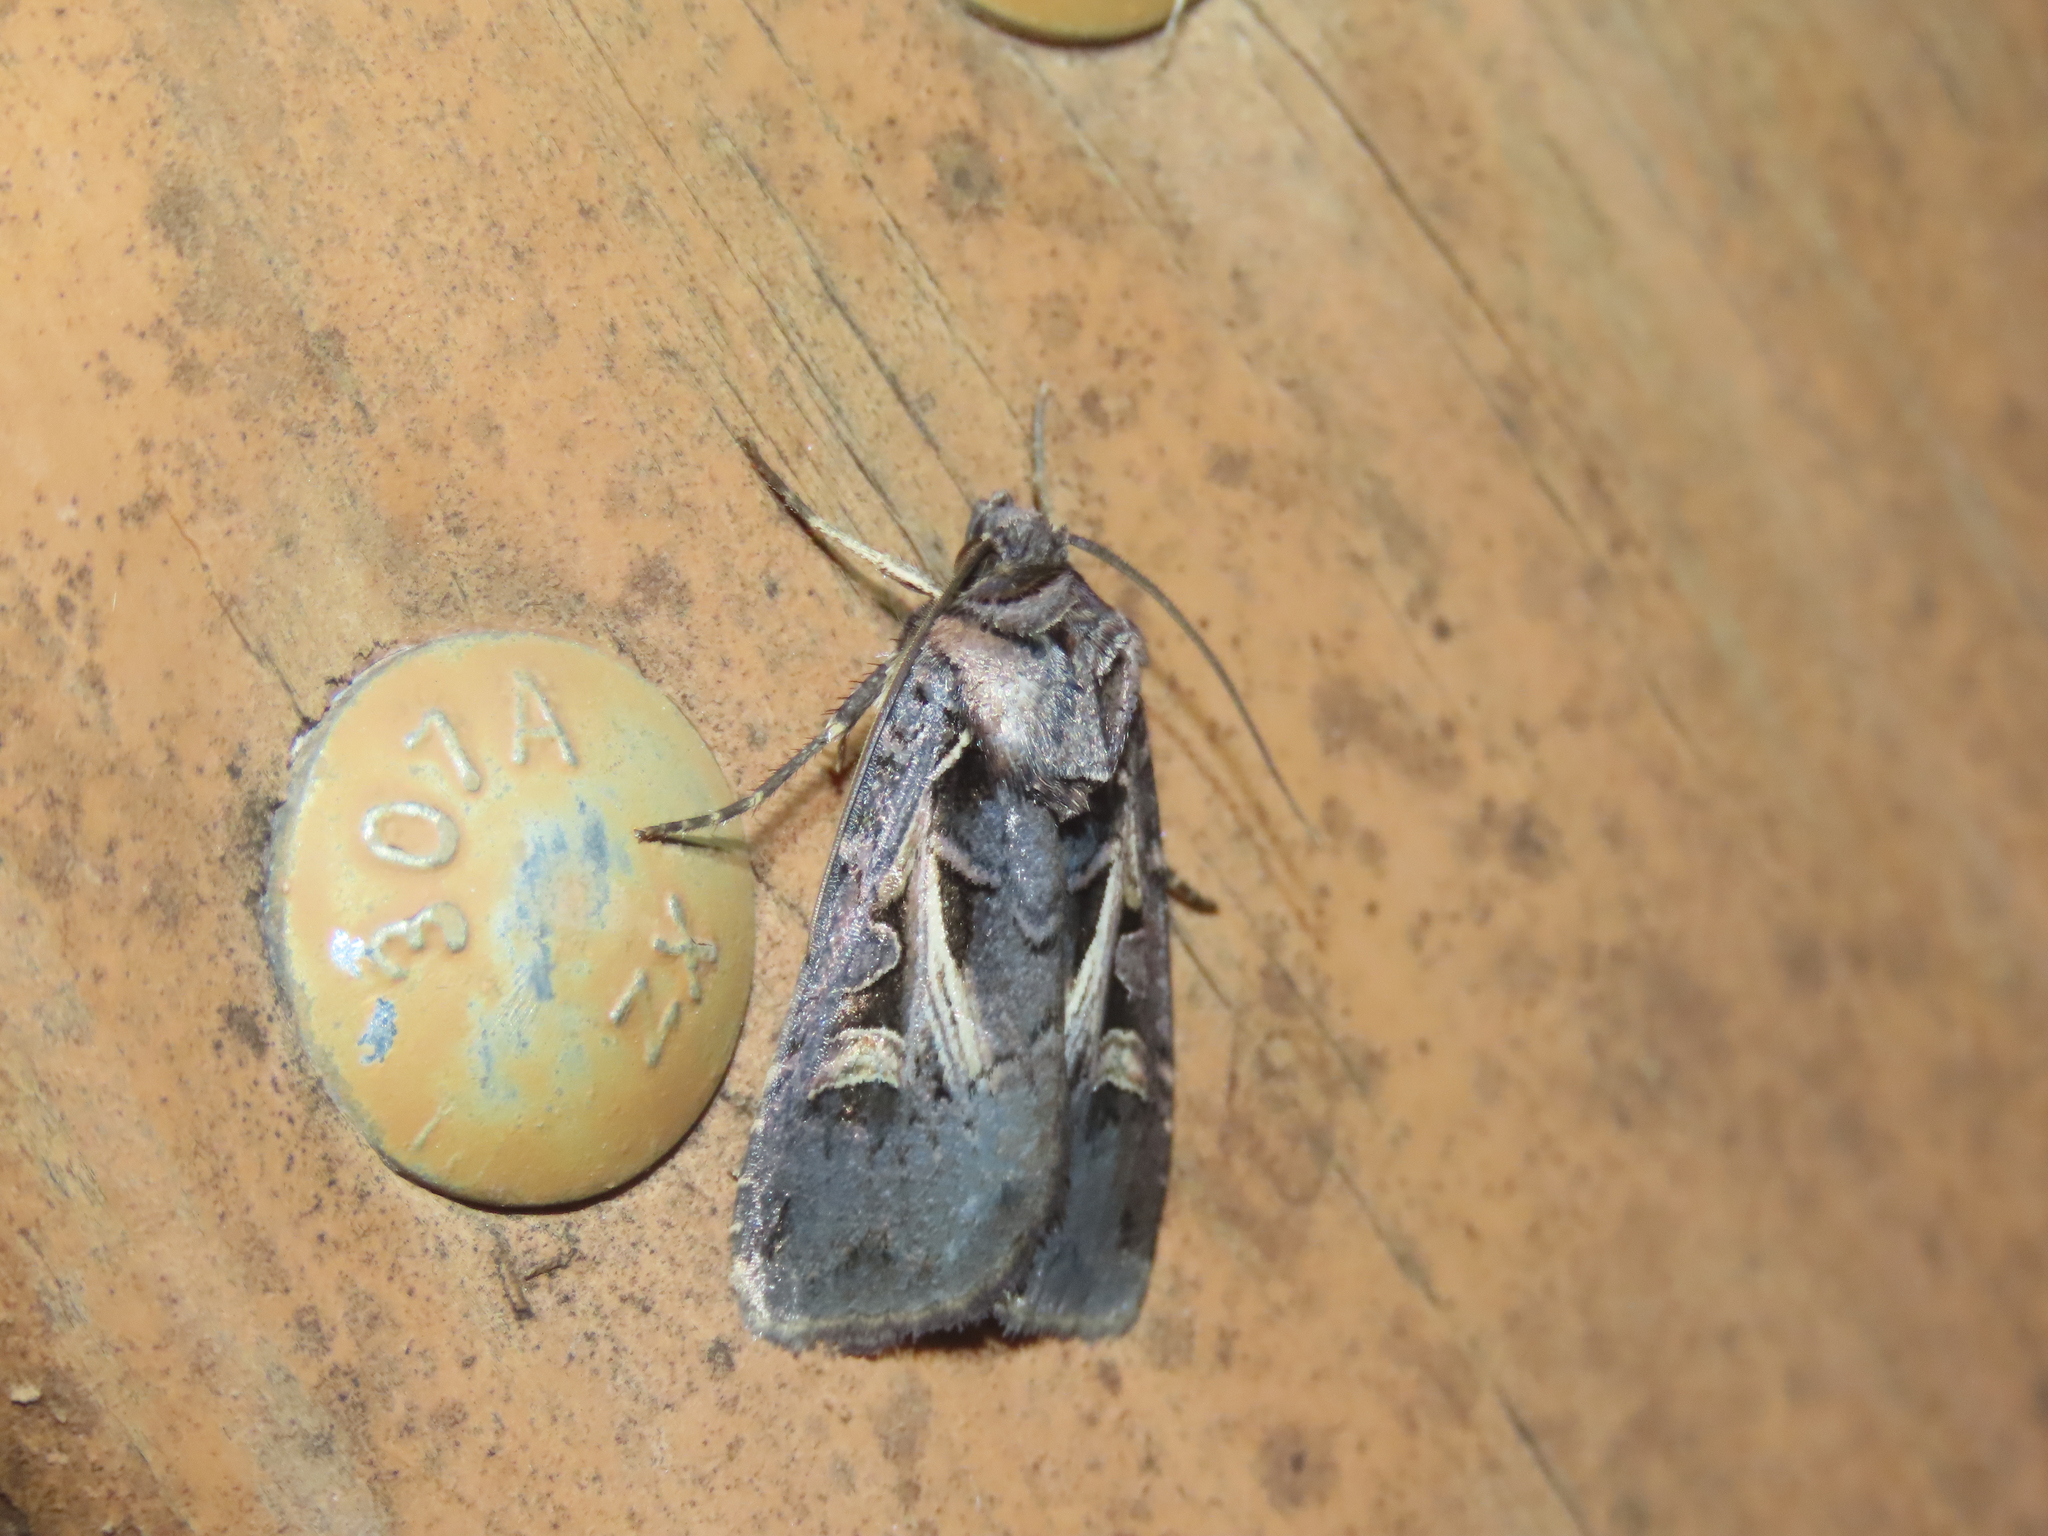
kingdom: Animalia
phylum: Arthropoda
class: Insecta
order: Lepidoptera
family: Noctuidae
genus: Feltia
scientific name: Feltia herilis
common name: Master's dart
